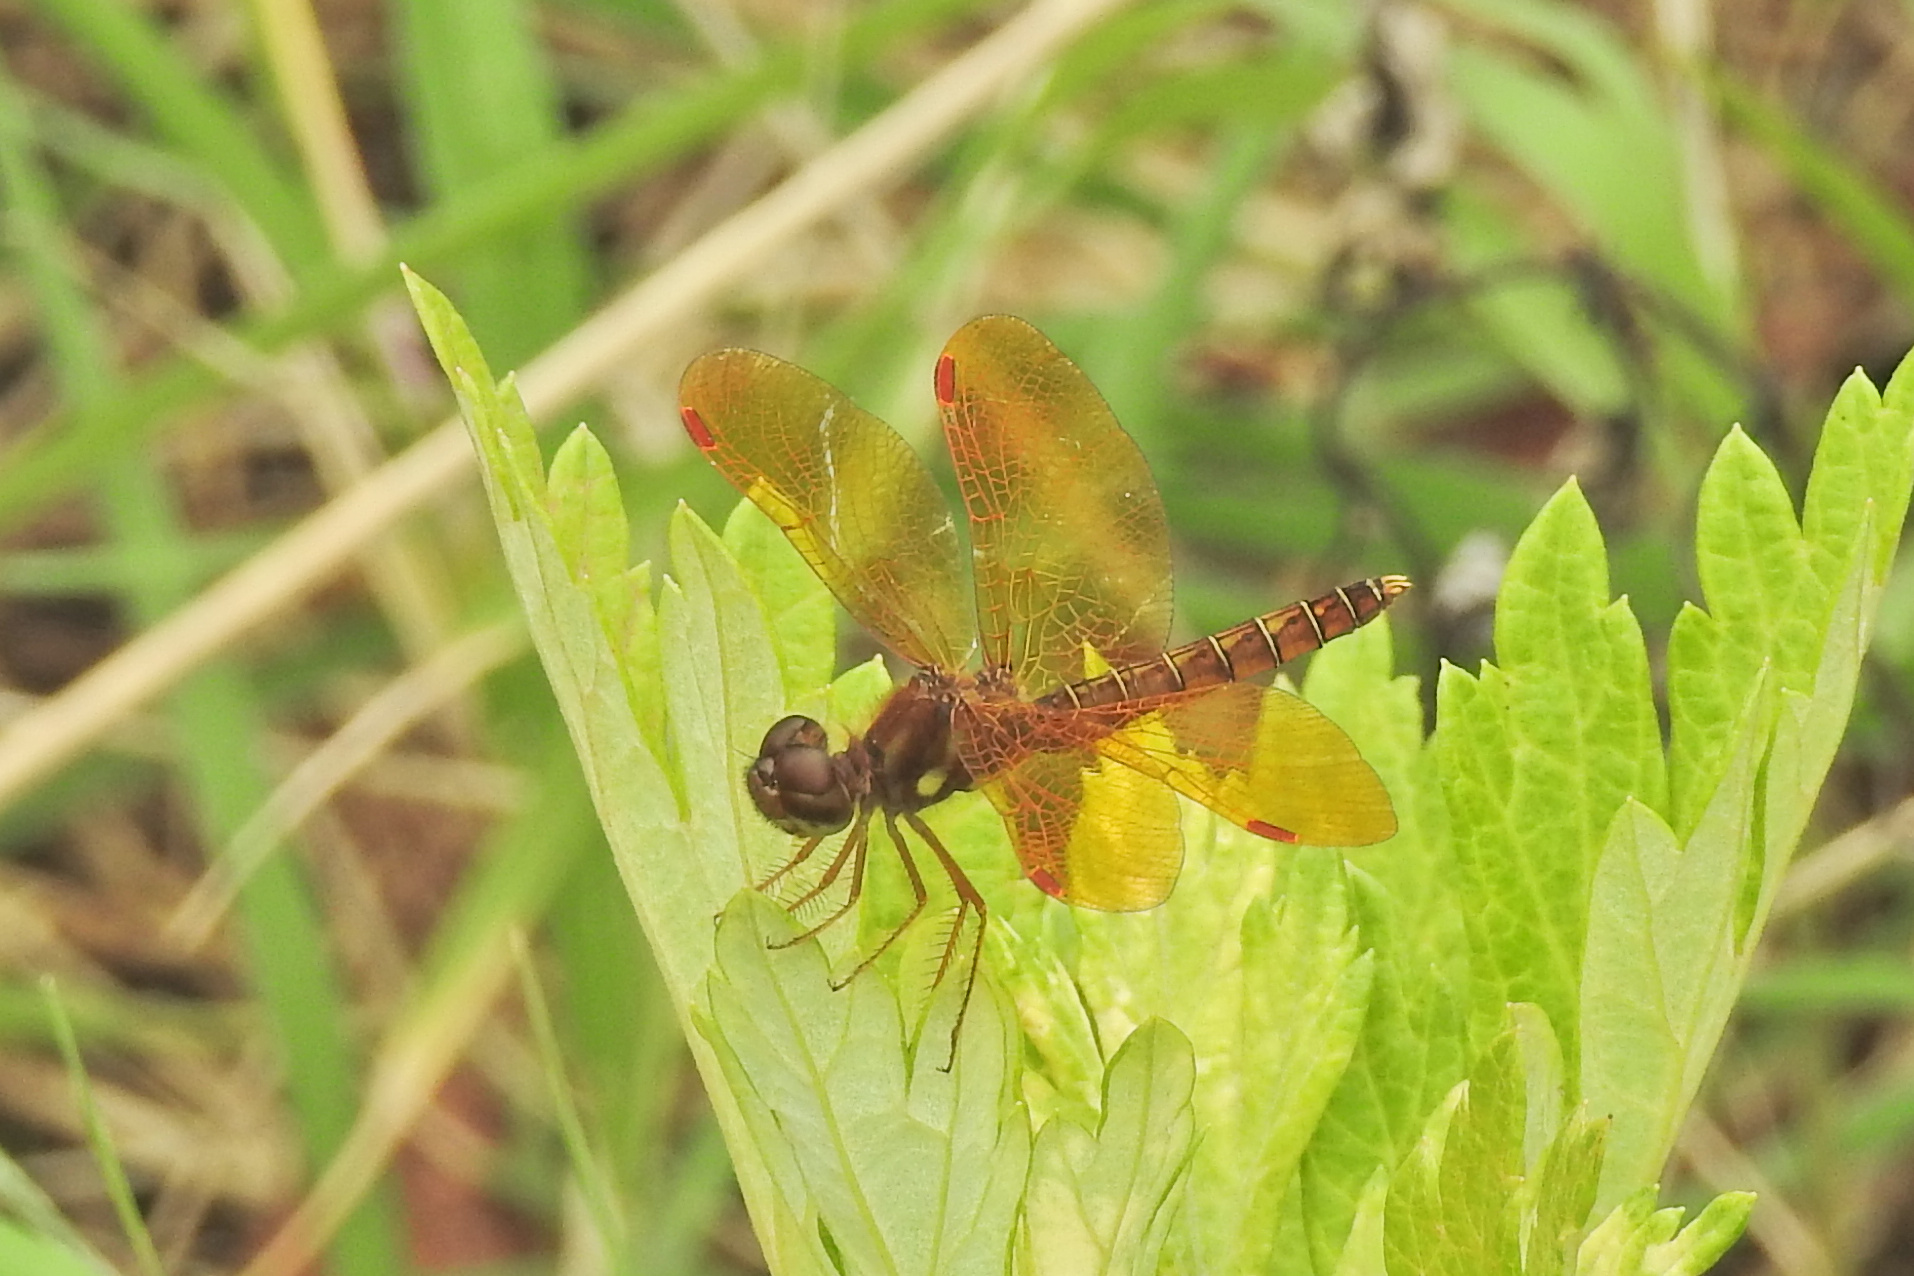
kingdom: Animalia
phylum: Arthropoda
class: Insecta
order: Odonata
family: Libellulidae
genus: Perithemis
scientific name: Perithemis tenera
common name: Eastern amberwing
